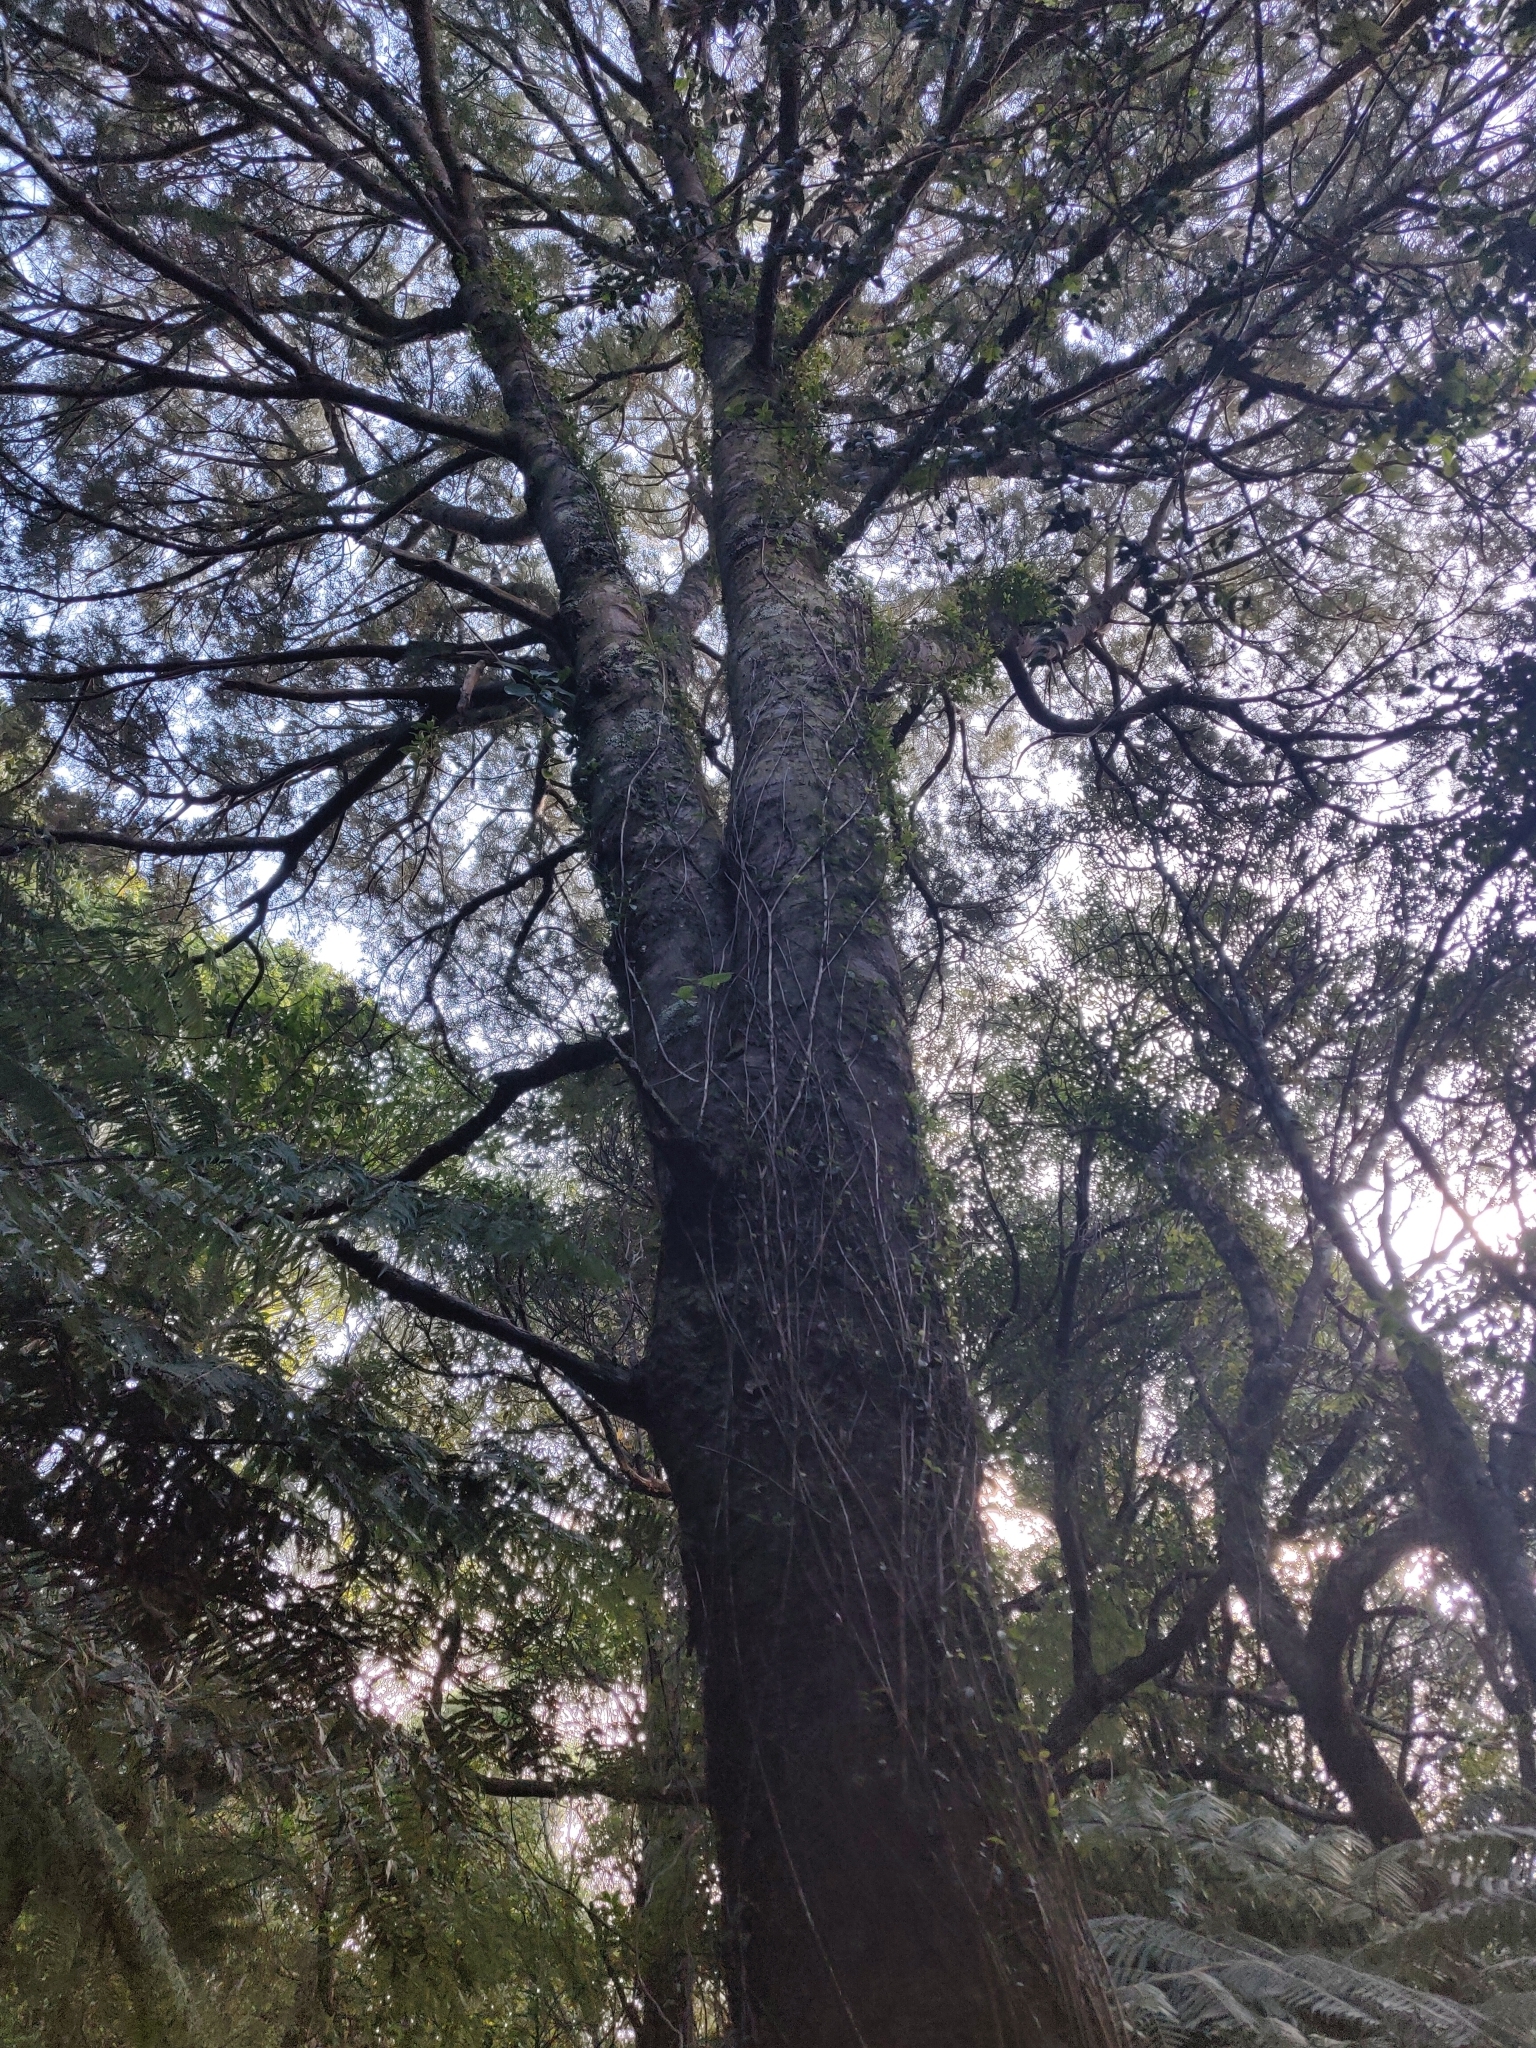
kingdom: Plantae
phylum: Tracheophyta
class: Pinopsida
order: Pinales
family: Podocarpaceae
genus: Dacrycarpus
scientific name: Dacrycarpus dacrydioides
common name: White pine
